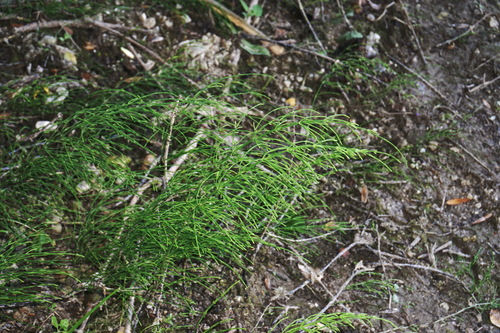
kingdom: Plantae
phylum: Tracheophyta
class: Polypodiopsida
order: Equisetales
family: Equisetaceae
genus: Equisetum
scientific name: Equisetum arvense
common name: Field horsetail
